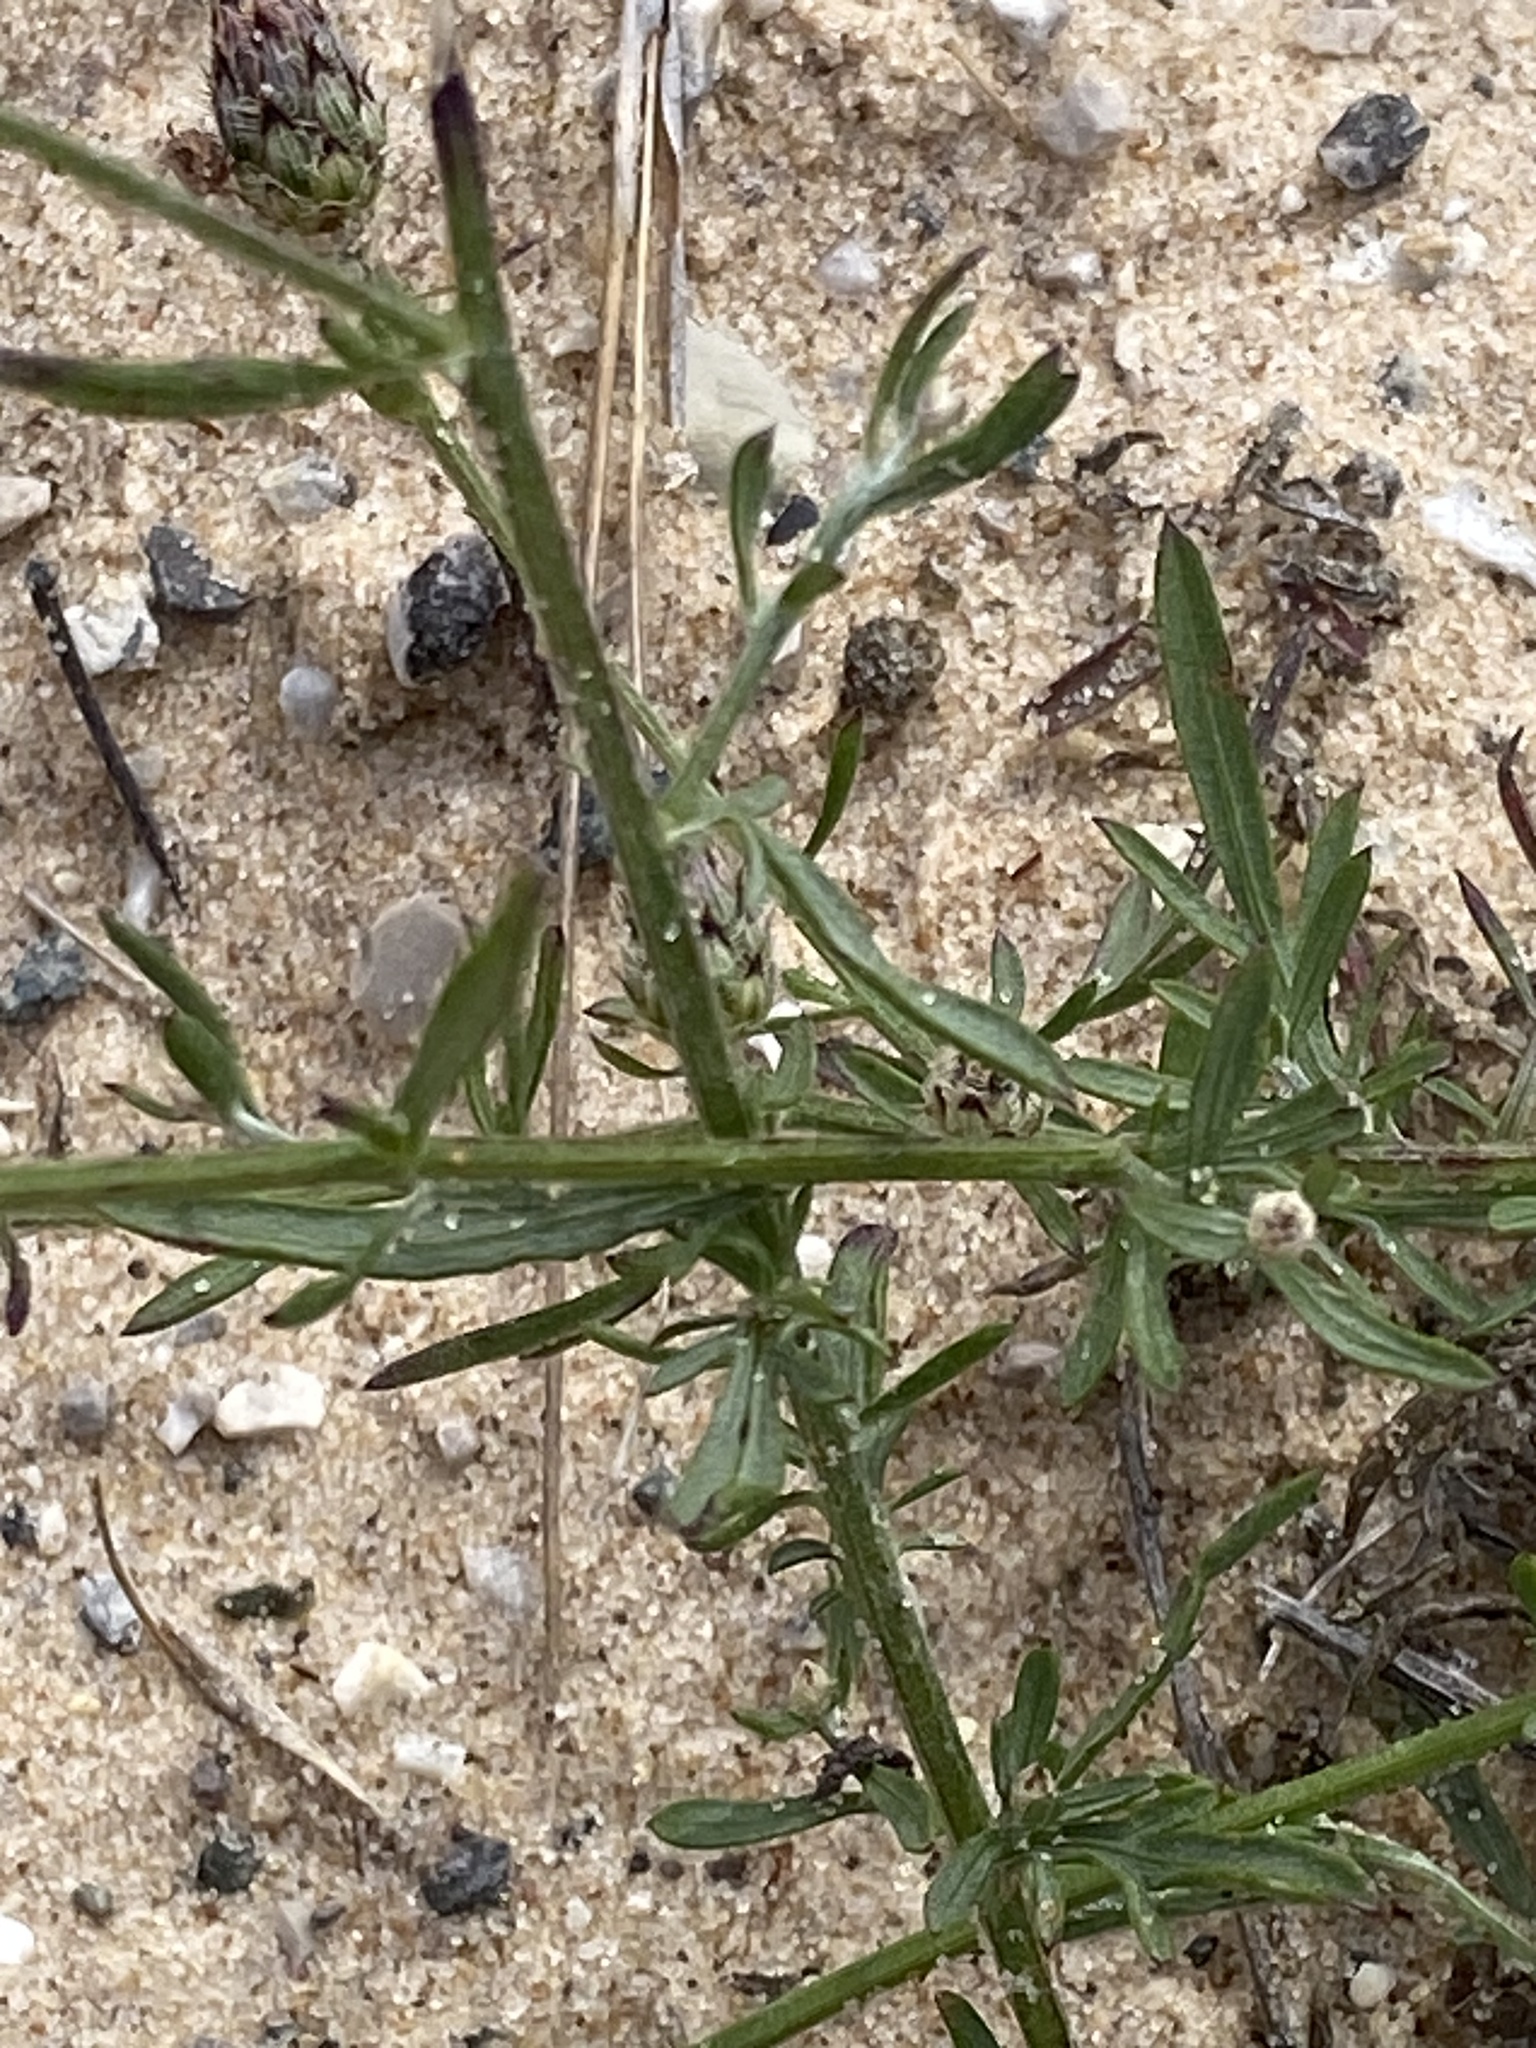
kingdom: Plantae
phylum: Tracheophyta
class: Magnoliopsida
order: Asterales
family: Asteraceae
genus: Centaurea
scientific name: Centaurea stoebe
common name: Spotted knapweed
